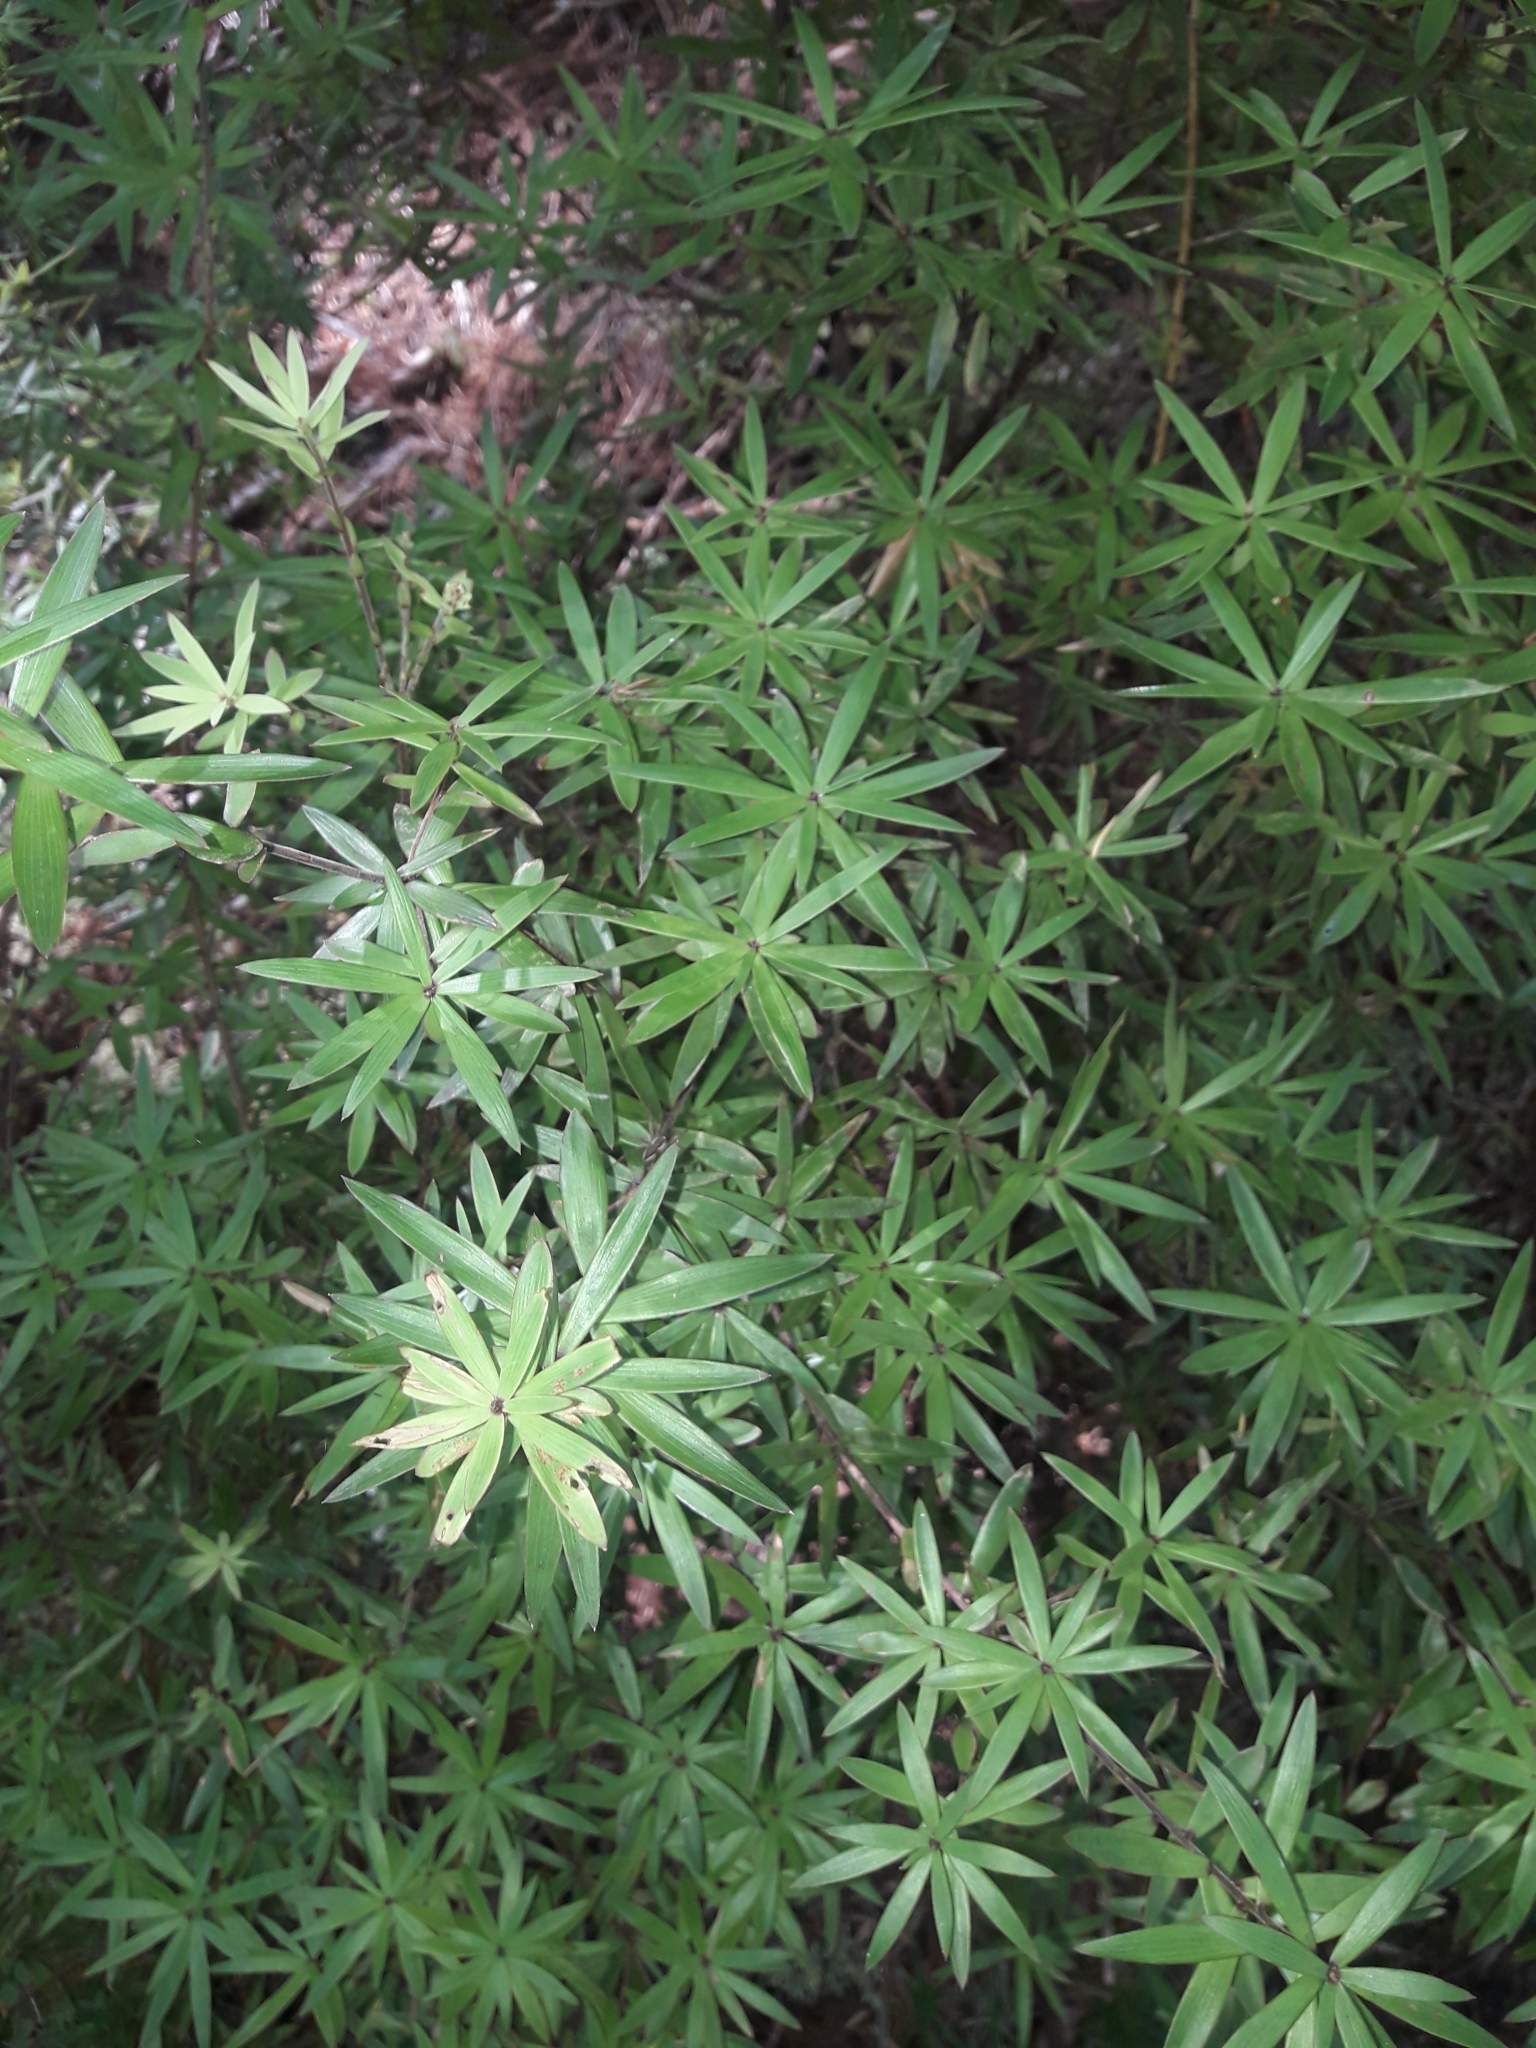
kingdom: Plantae
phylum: Tracheophyta
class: Magnoliopsida
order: Ericales
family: Ericaceae
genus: Leucopogon
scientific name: Leucopogon fasciculatus
